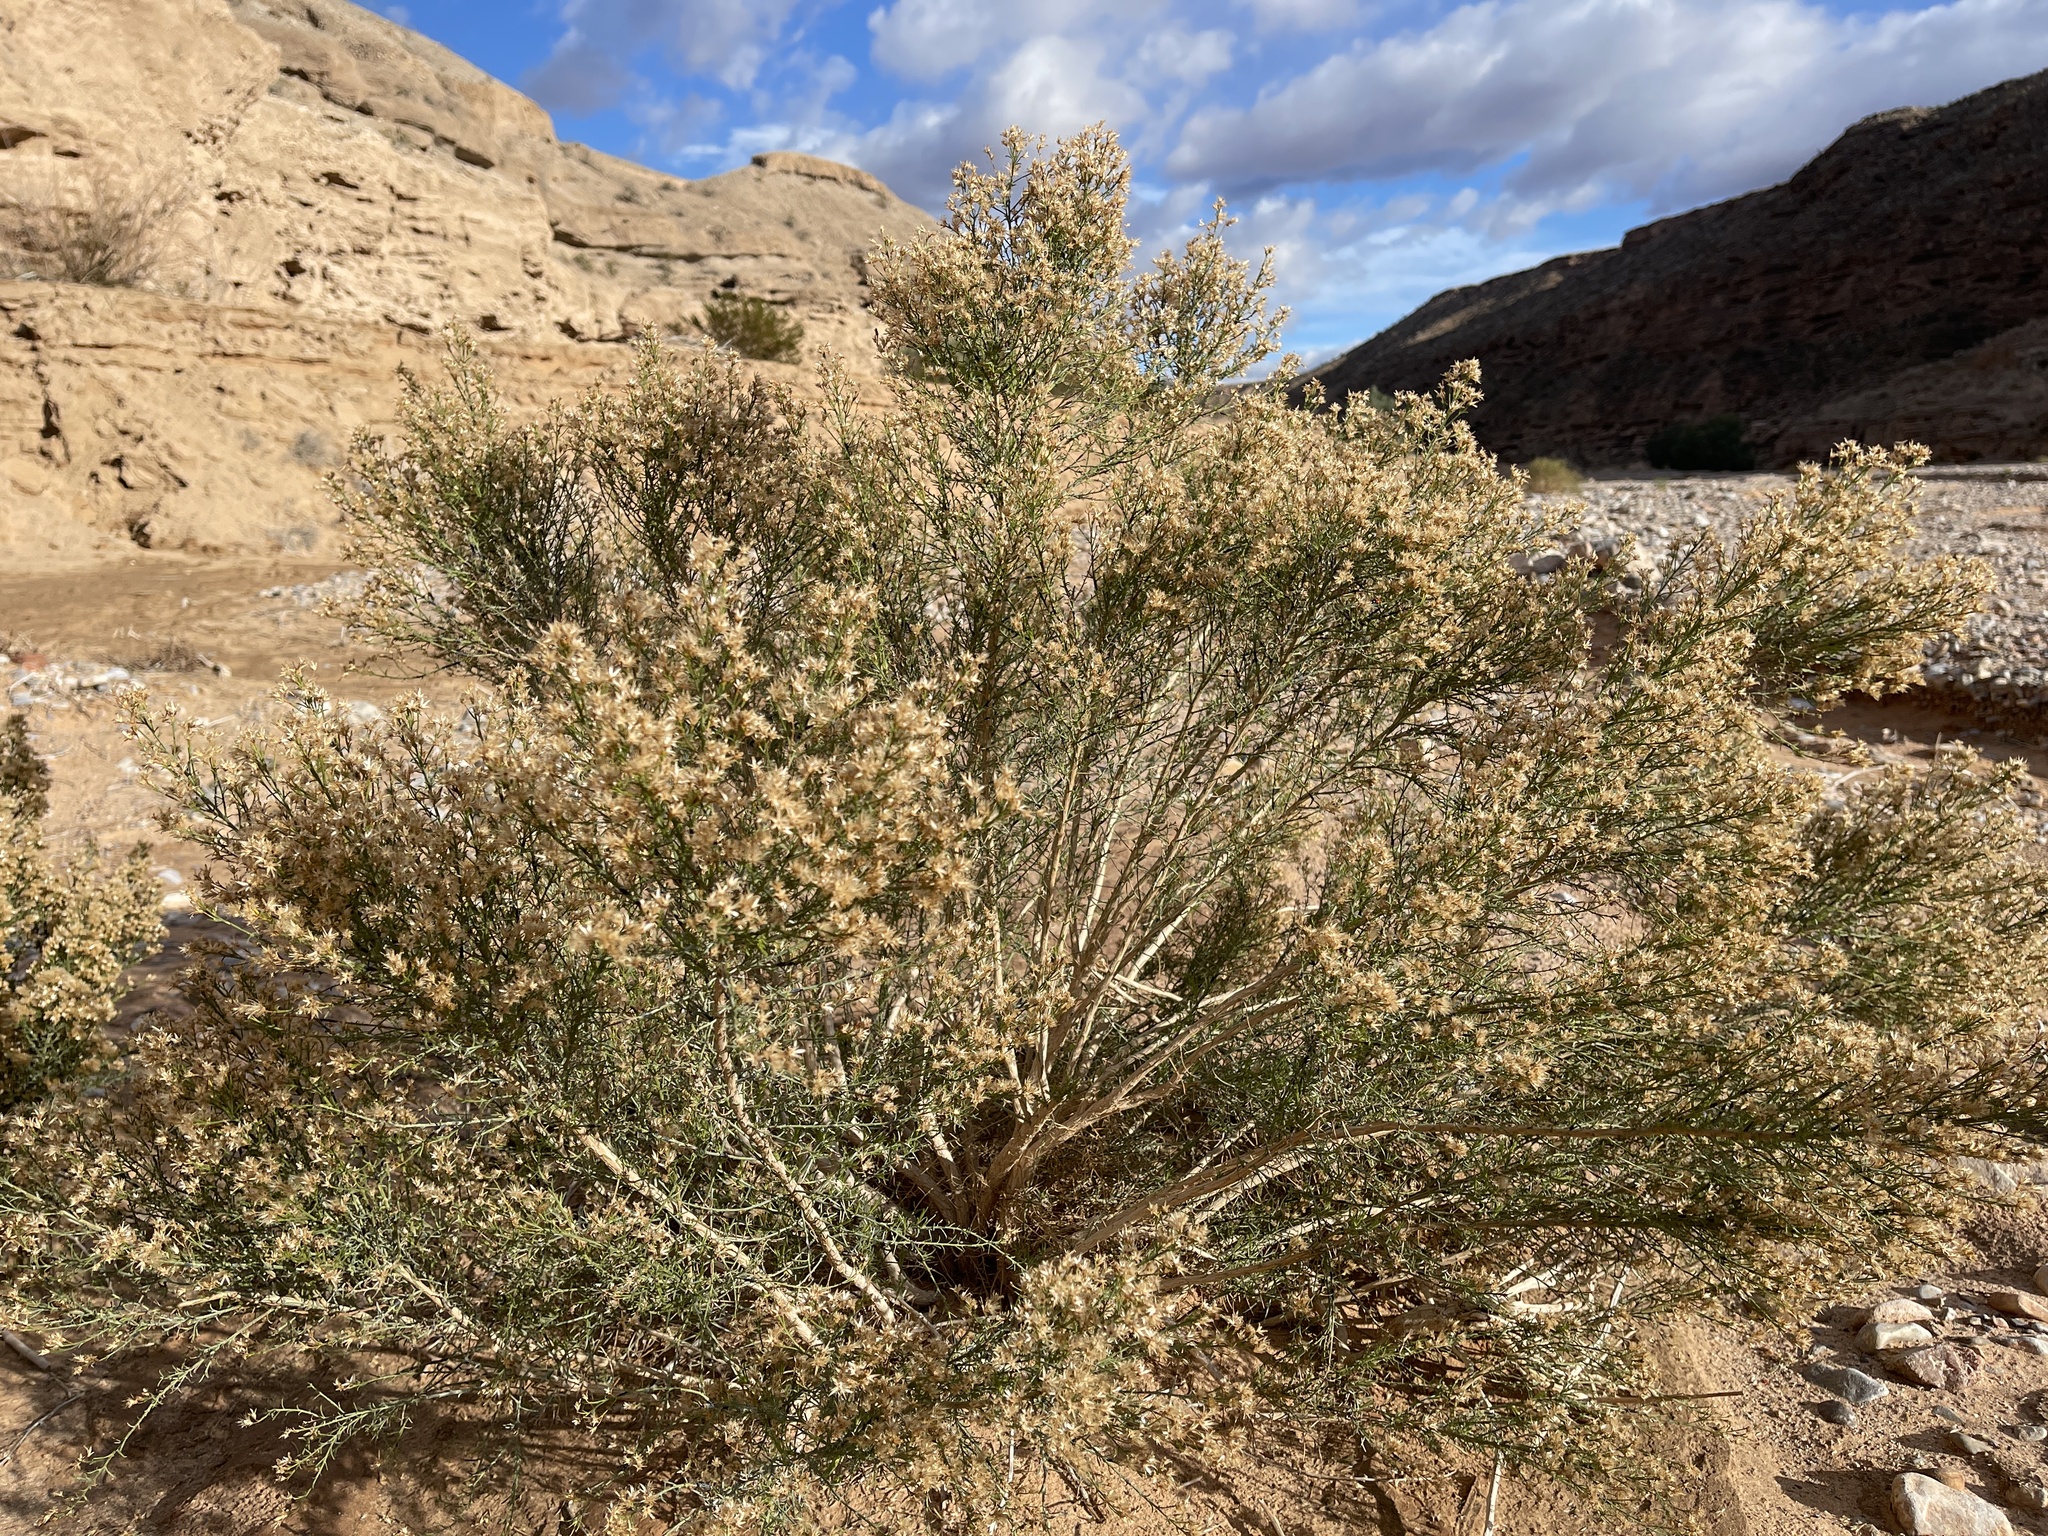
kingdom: Plantae
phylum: Tracheophyta
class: Magnoliopsida
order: Asterales
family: Asteraceae
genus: Baccharis
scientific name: Baccharis sergiloides
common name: Desert baccharis
